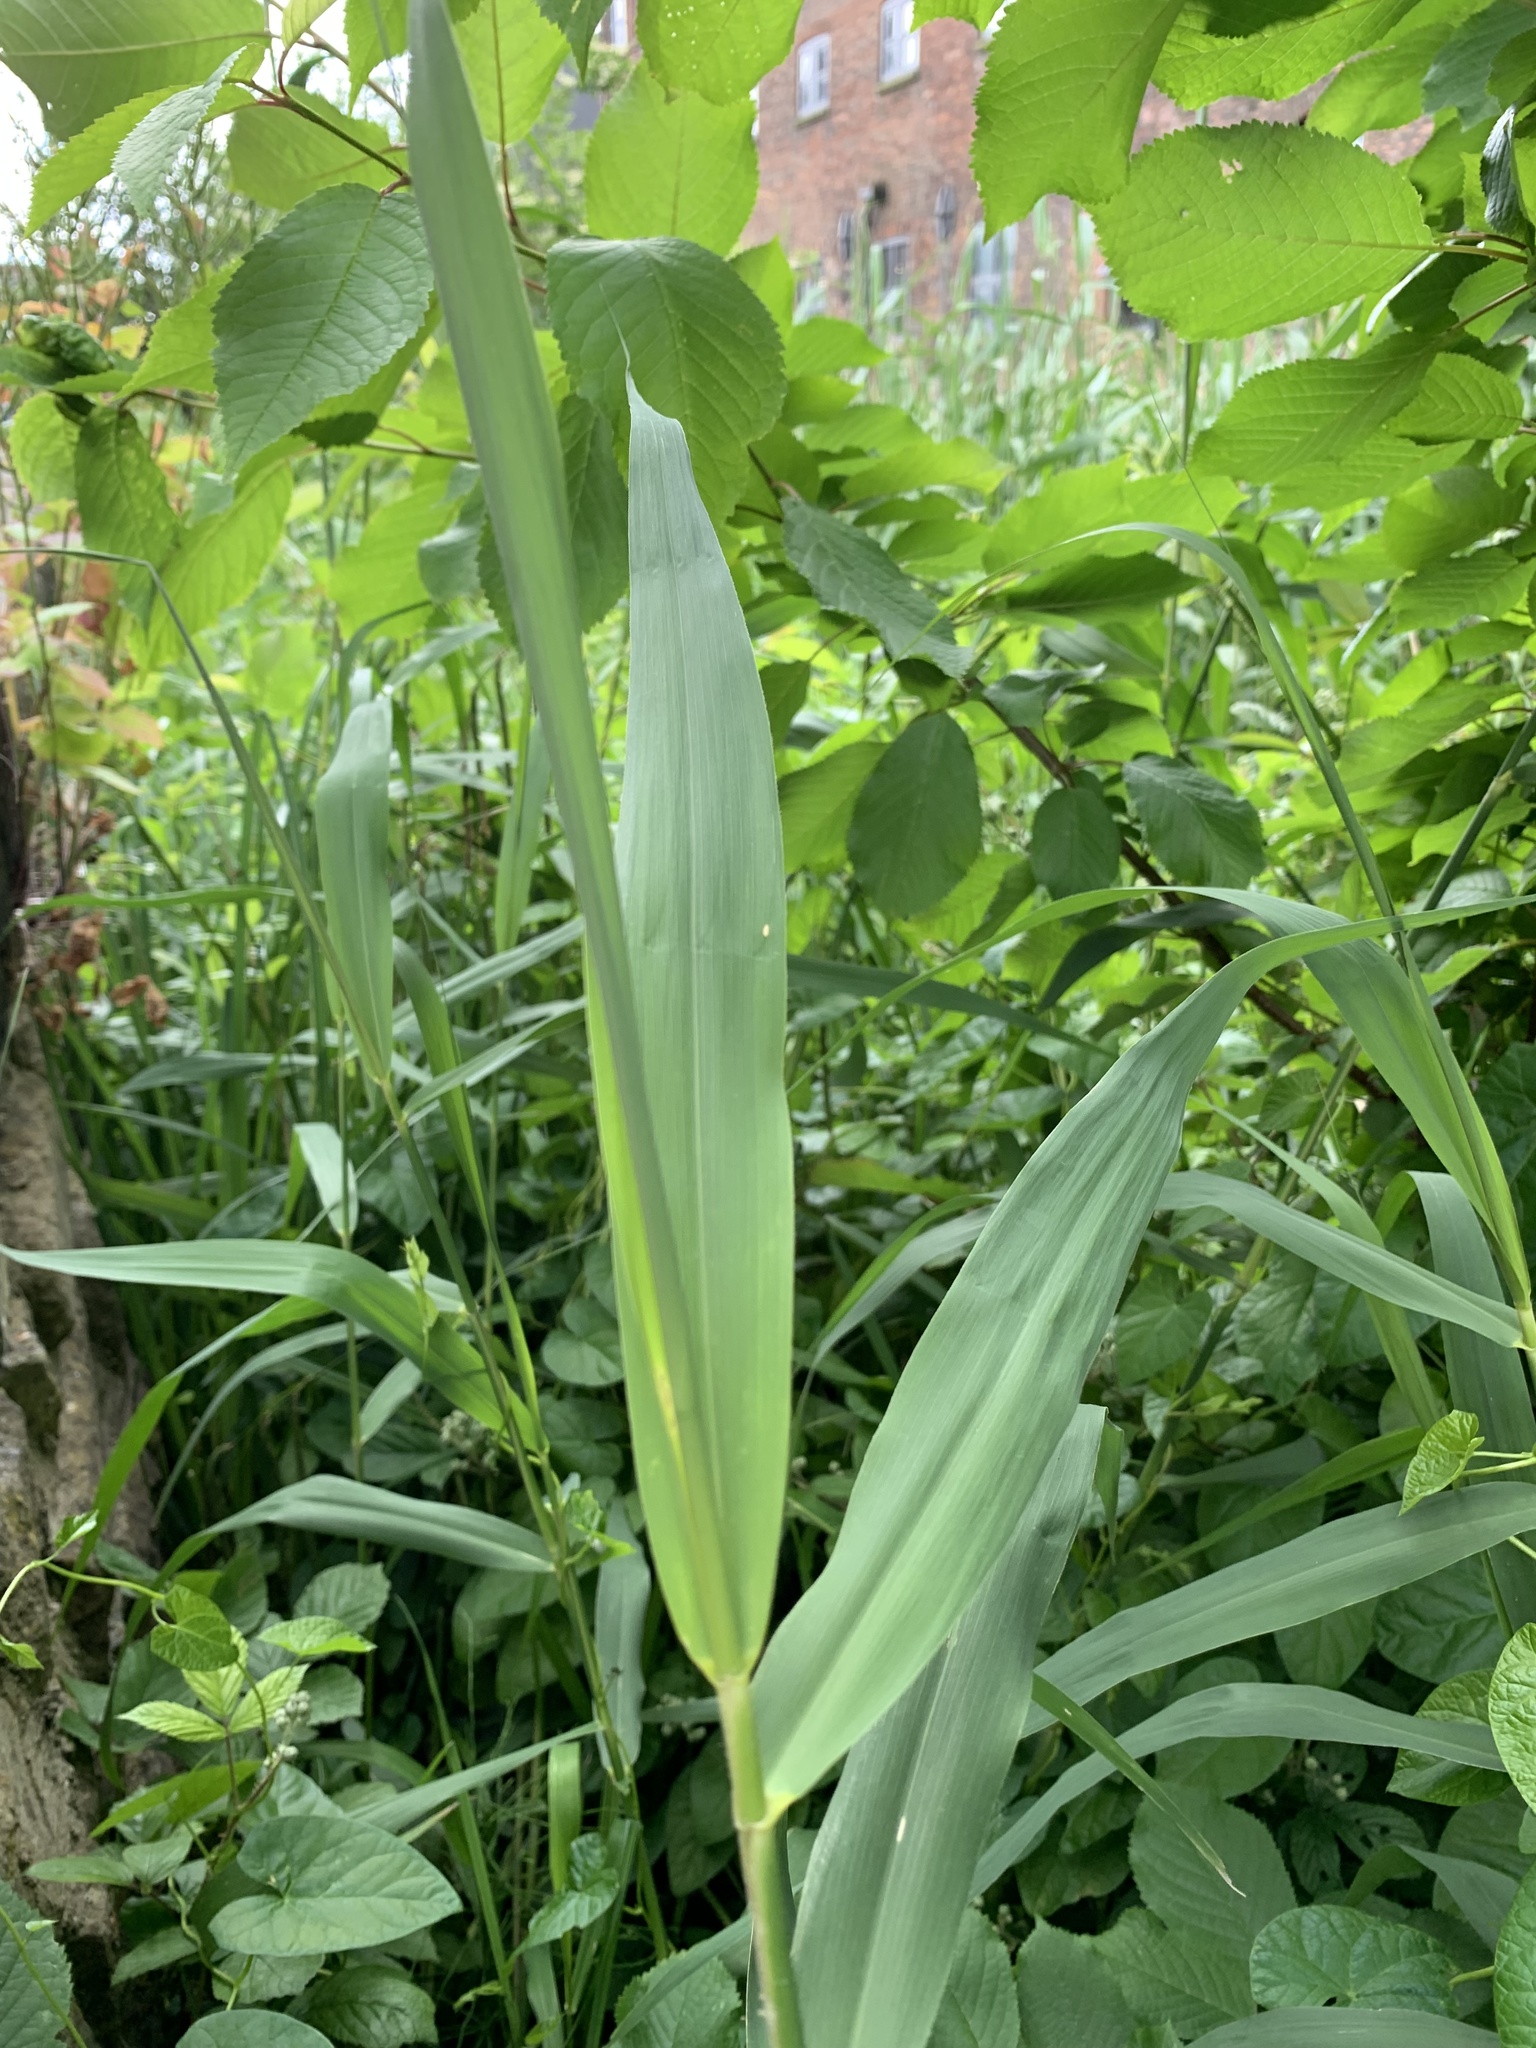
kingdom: Plantae
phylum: Tracheophyta
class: Liliopsida
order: Poales
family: Poaceae
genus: Phragmites
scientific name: Phragmites australis
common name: Common reed
